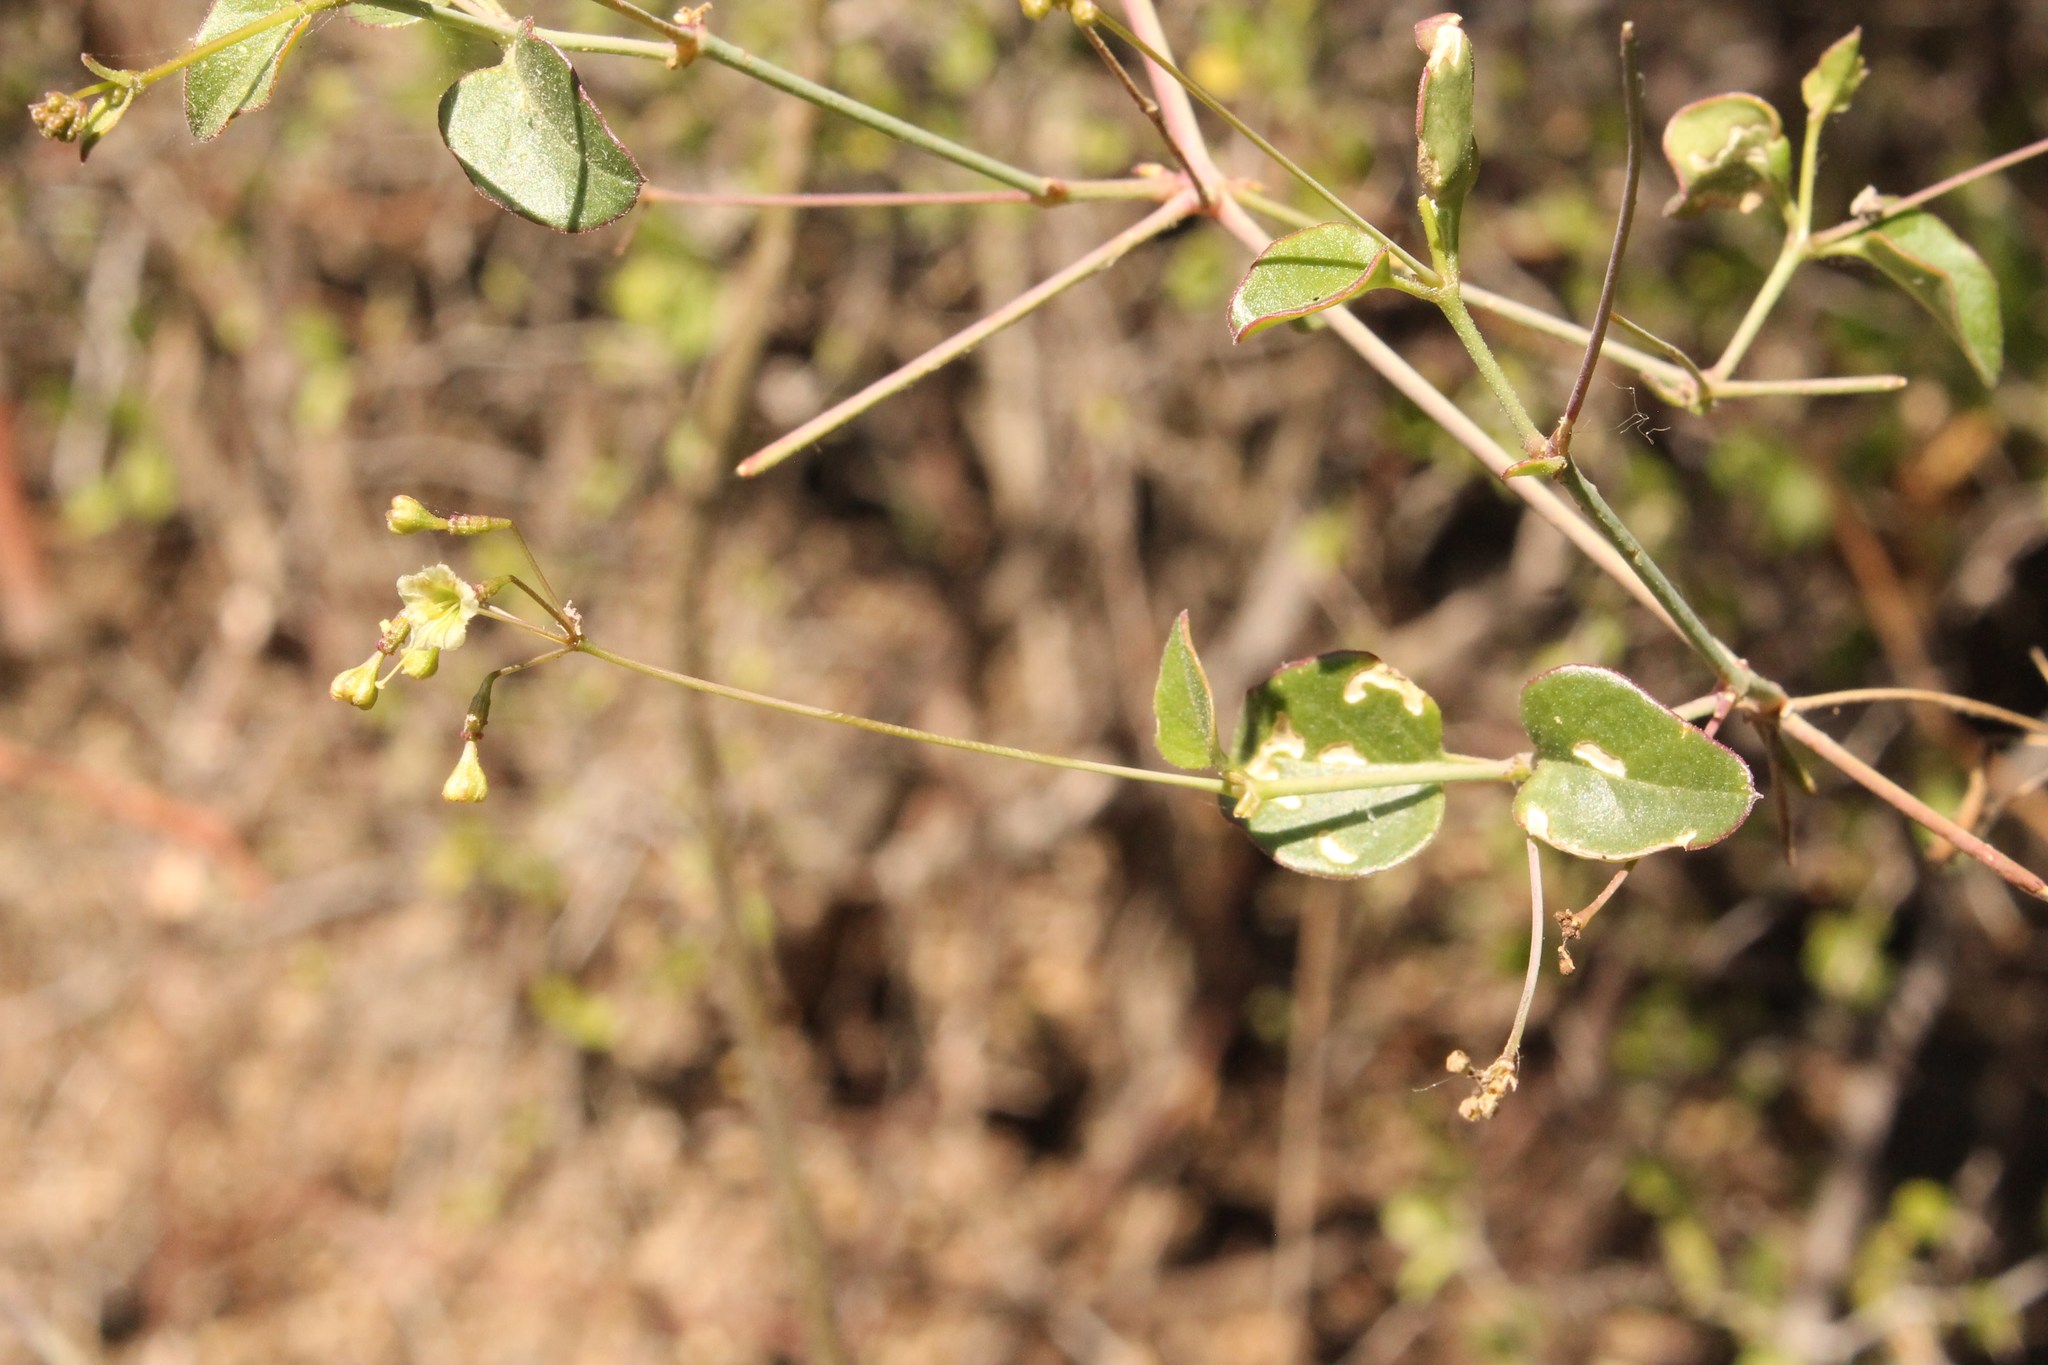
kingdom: Plantae
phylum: Tracheophyta
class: Magnoliopsida
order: Caryophyllales
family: Nyctaginaceae
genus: Commicarpus
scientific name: Commicarpus scandens
